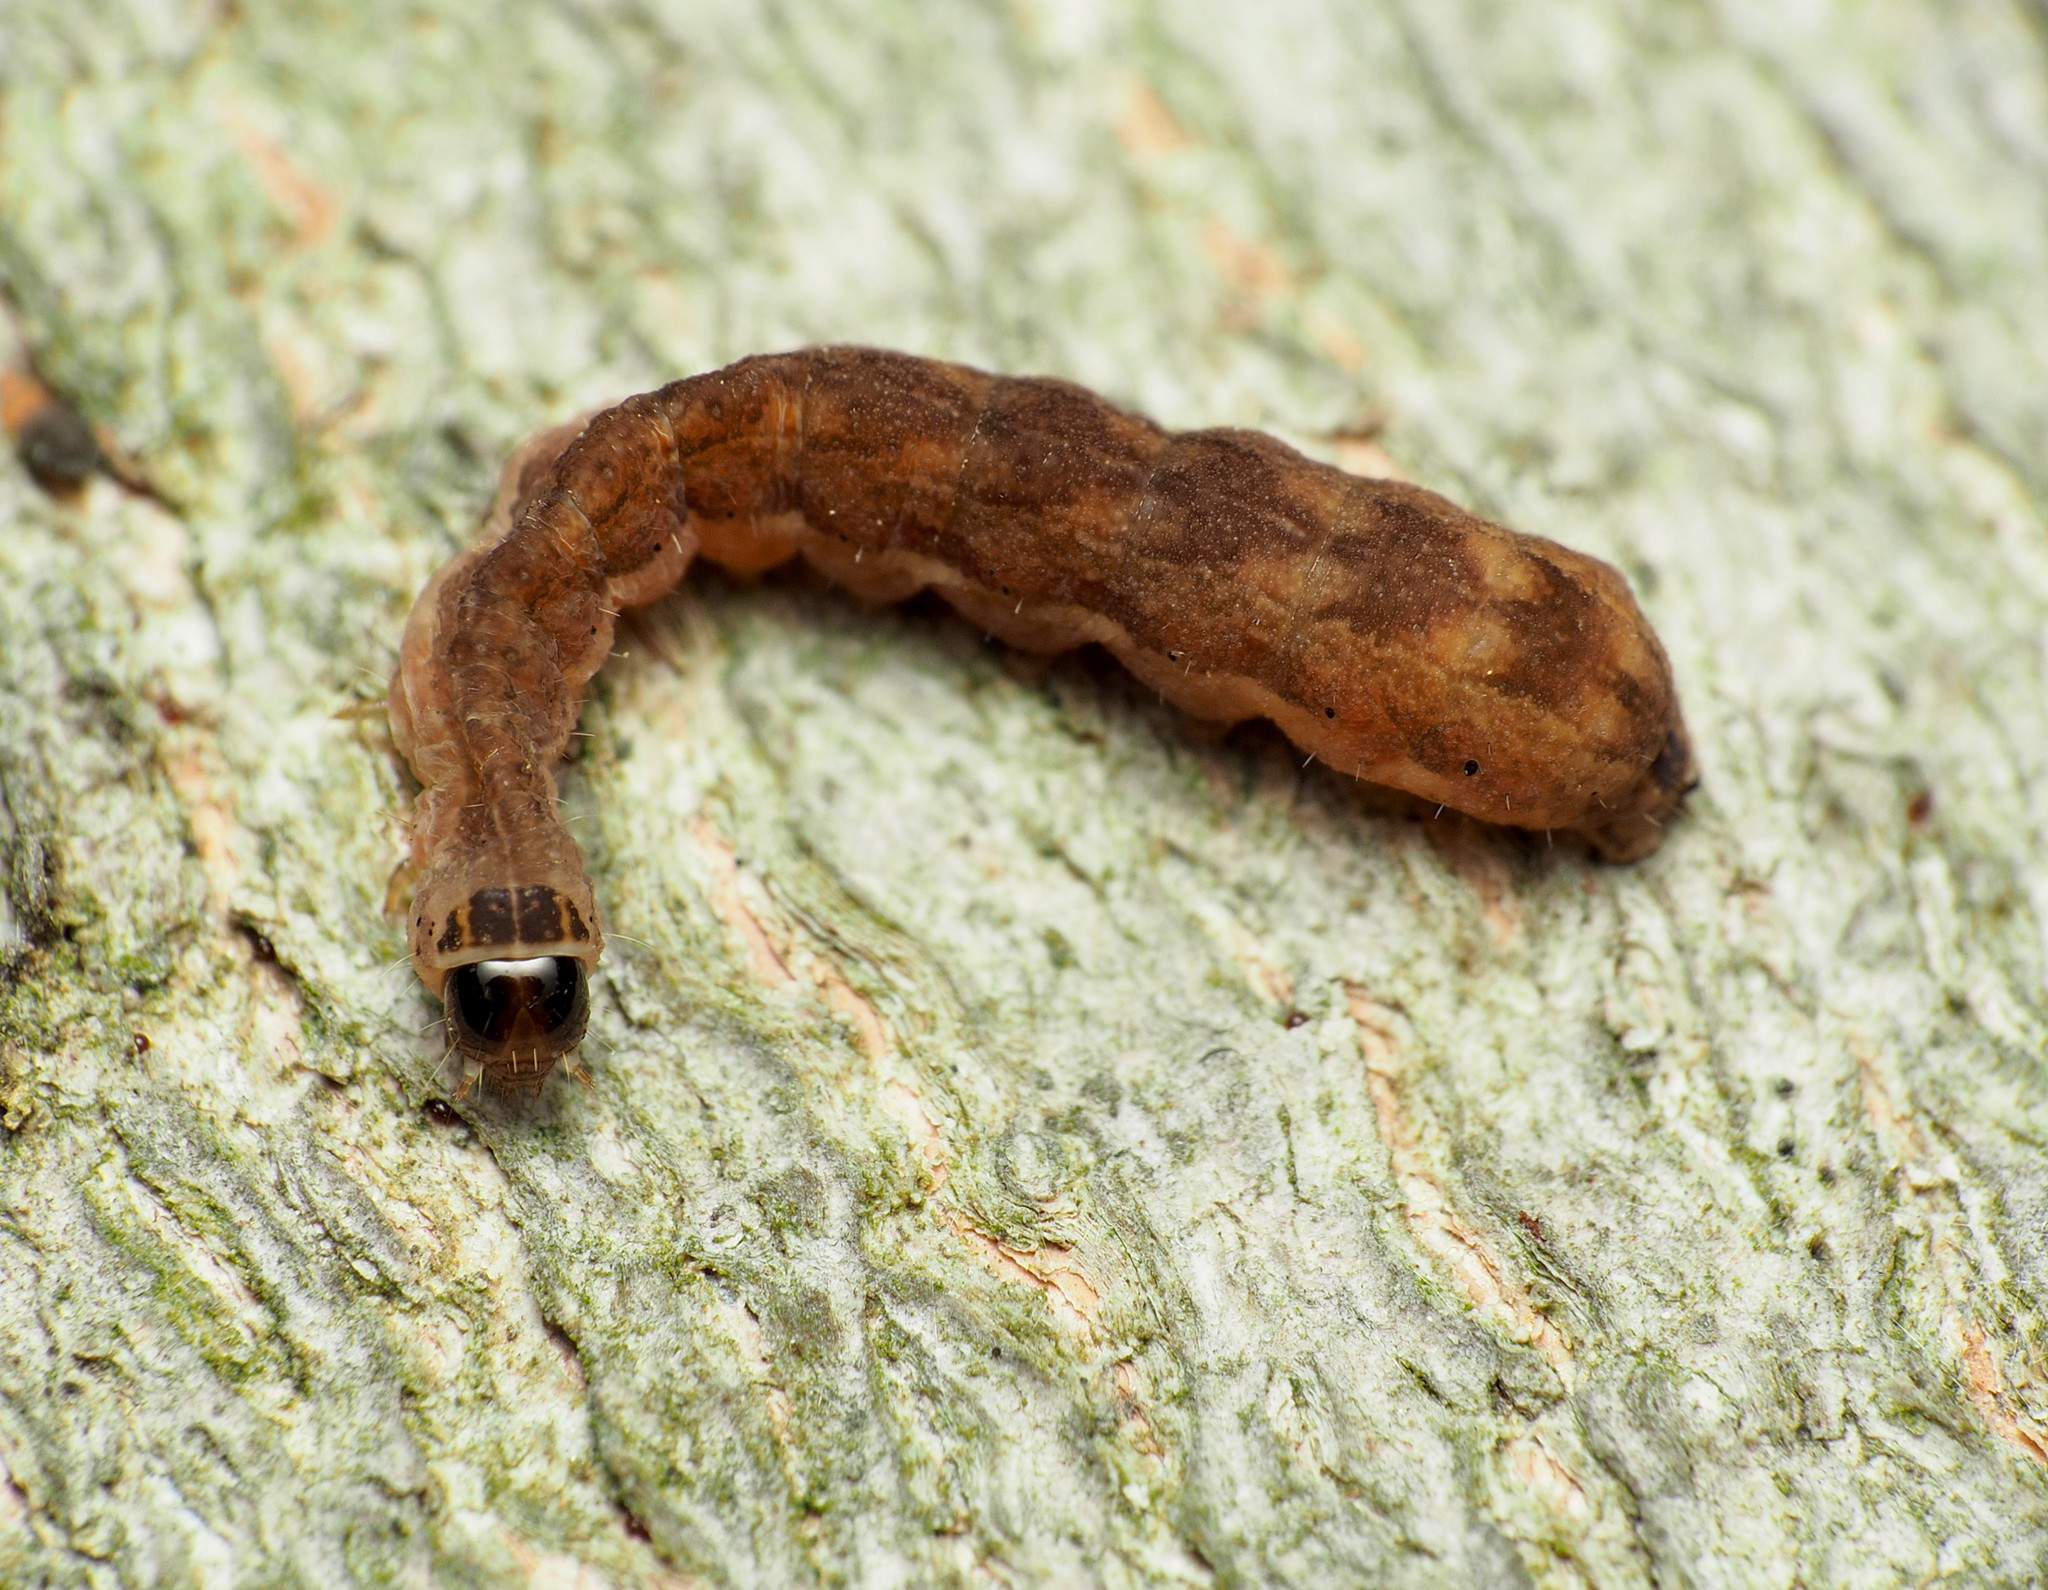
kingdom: Animalia
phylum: Arthropoda
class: Insecta
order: Lepidoptera
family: Noctuidae
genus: Agrochola
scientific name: Agrochola bicolorago
